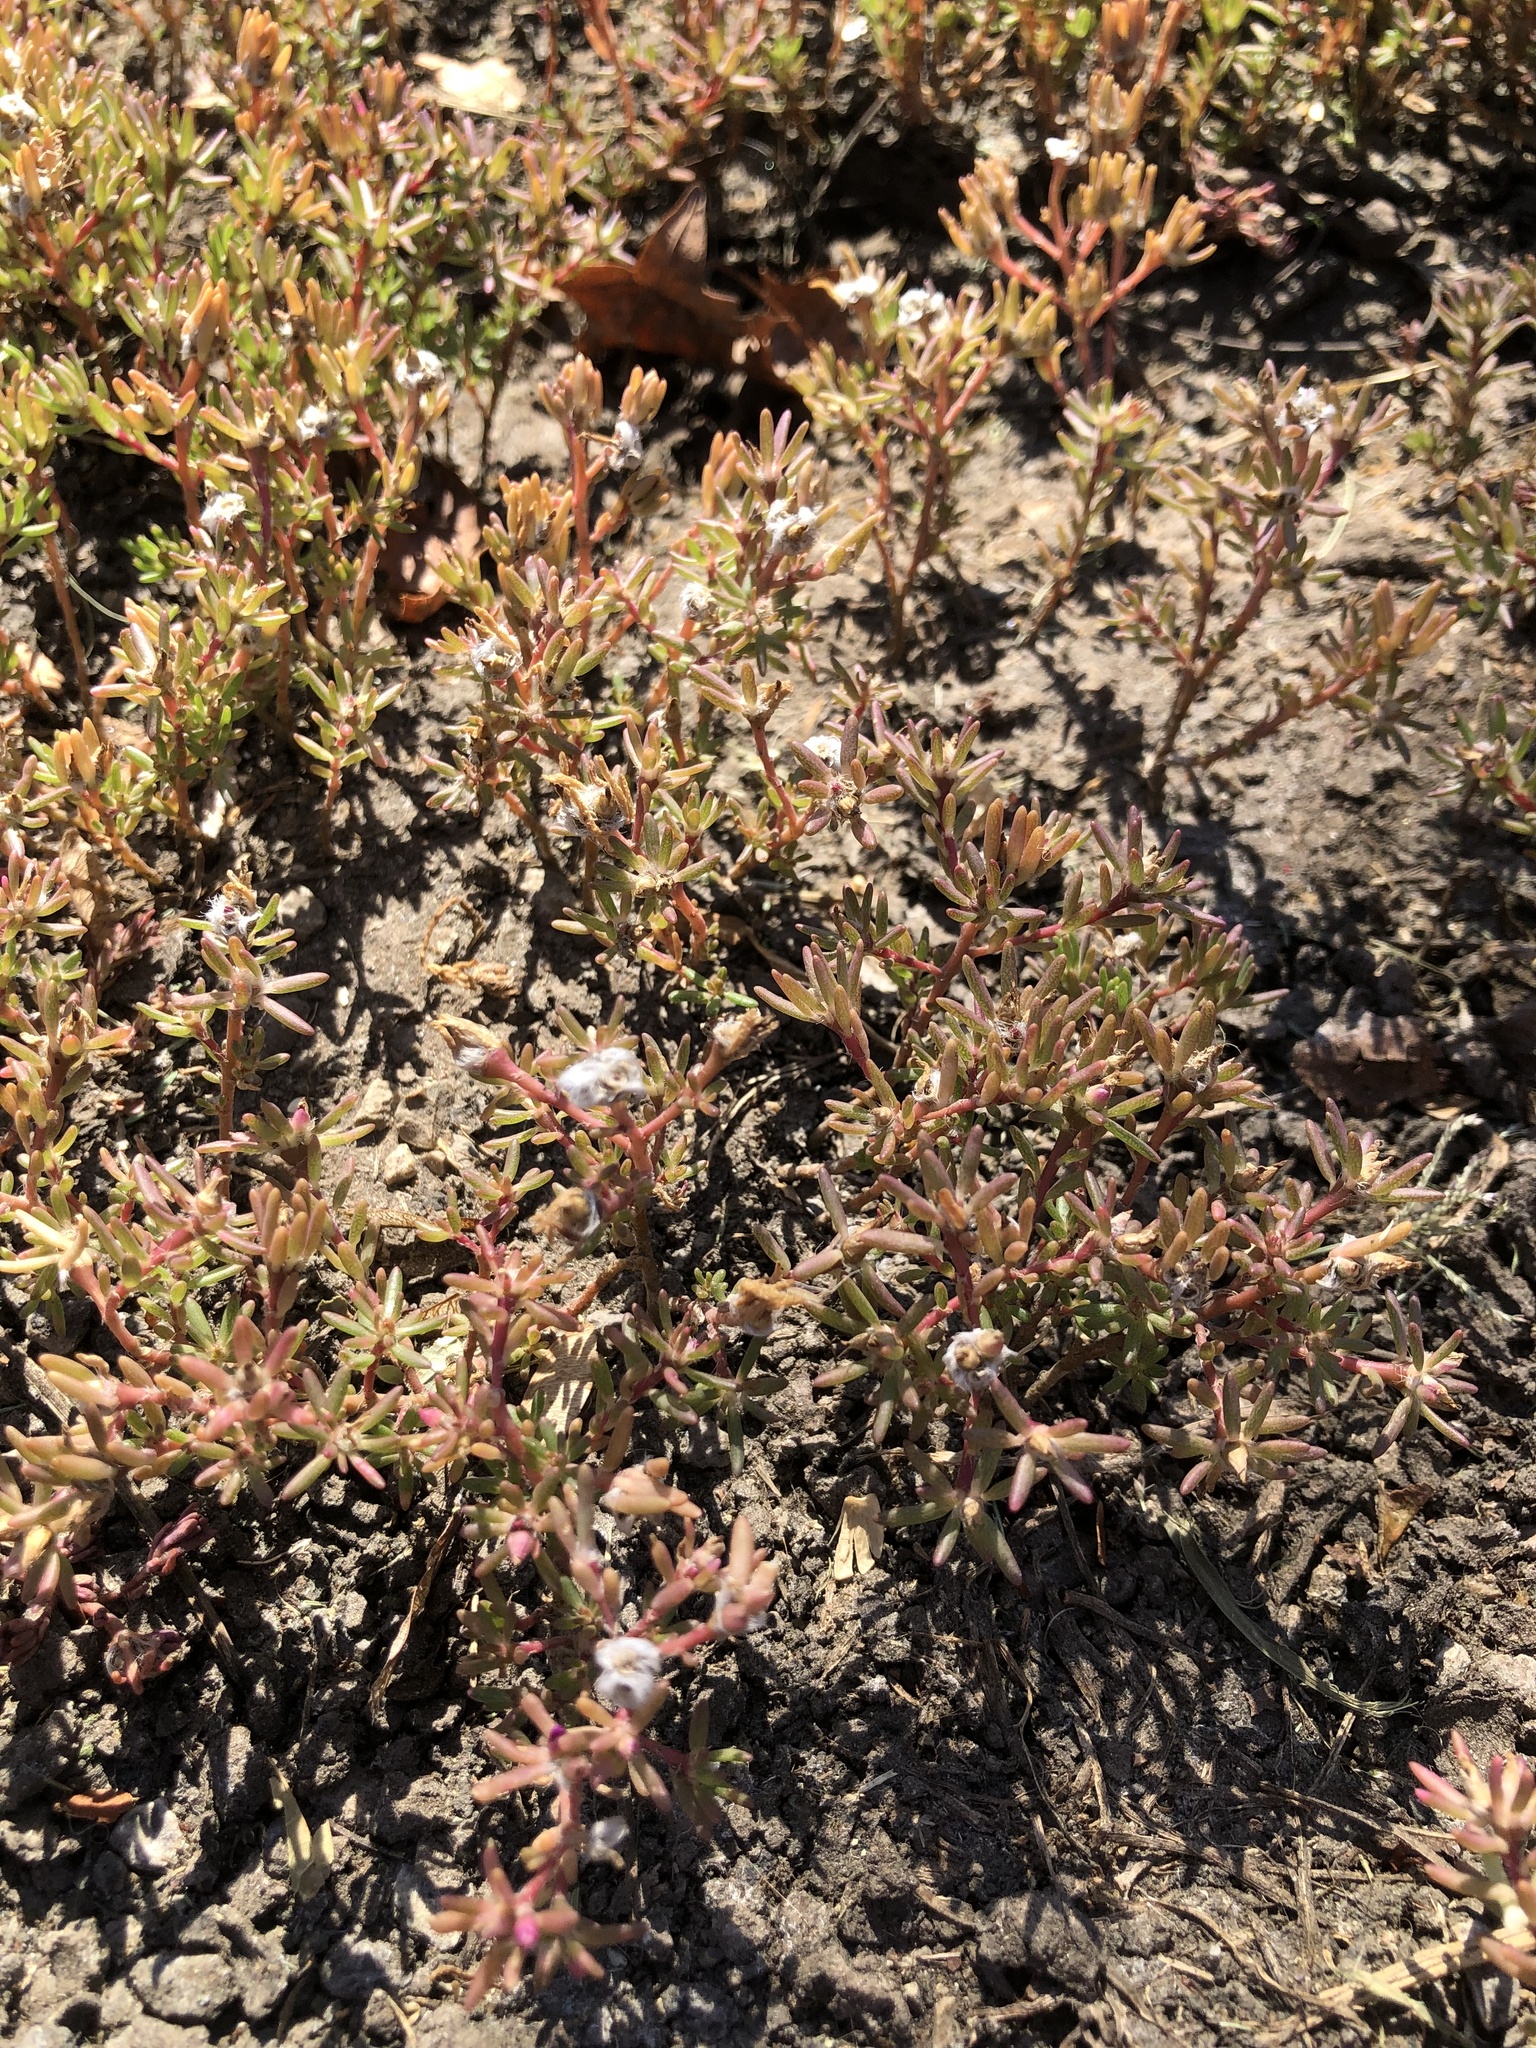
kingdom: Plantae
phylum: Tracheophyta
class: Magnoliopsida
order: Caryophyllales
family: Portulacaceae
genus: Portulaca
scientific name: Portulaca pilosa
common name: Kiss me quick
